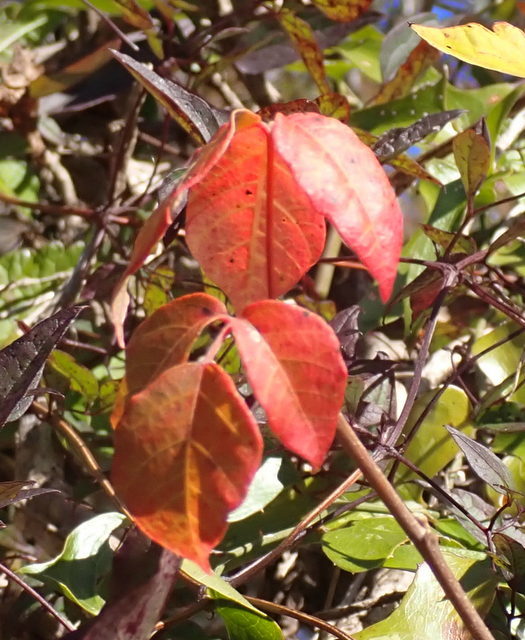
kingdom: Plantae
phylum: Tracheophyta
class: Magnoliopsida
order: Sapindales
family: Anacardiaceae
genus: Toxicodendron
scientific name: Toxicodendron radicans
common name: Poison ivy
